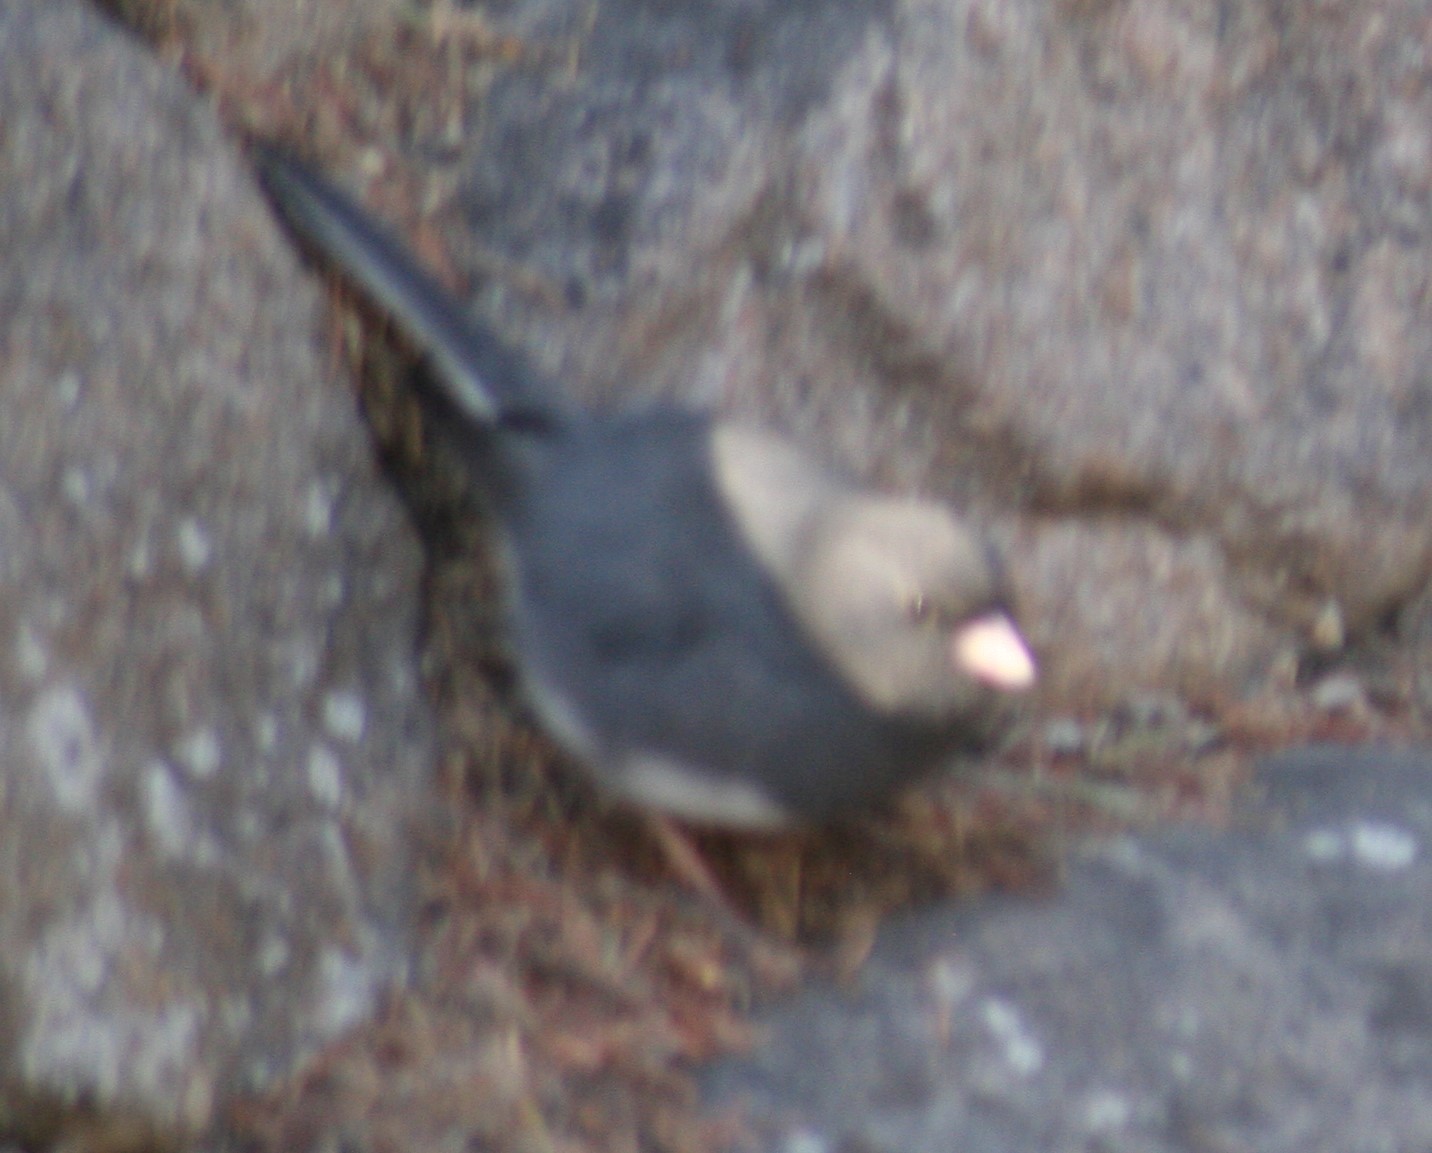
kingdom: Animalia
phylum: Chordata
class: Aves
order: Passeriformes
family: Passerellidae
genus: Junco
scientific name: Junco hyemalis
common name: Dark-eyed junco
